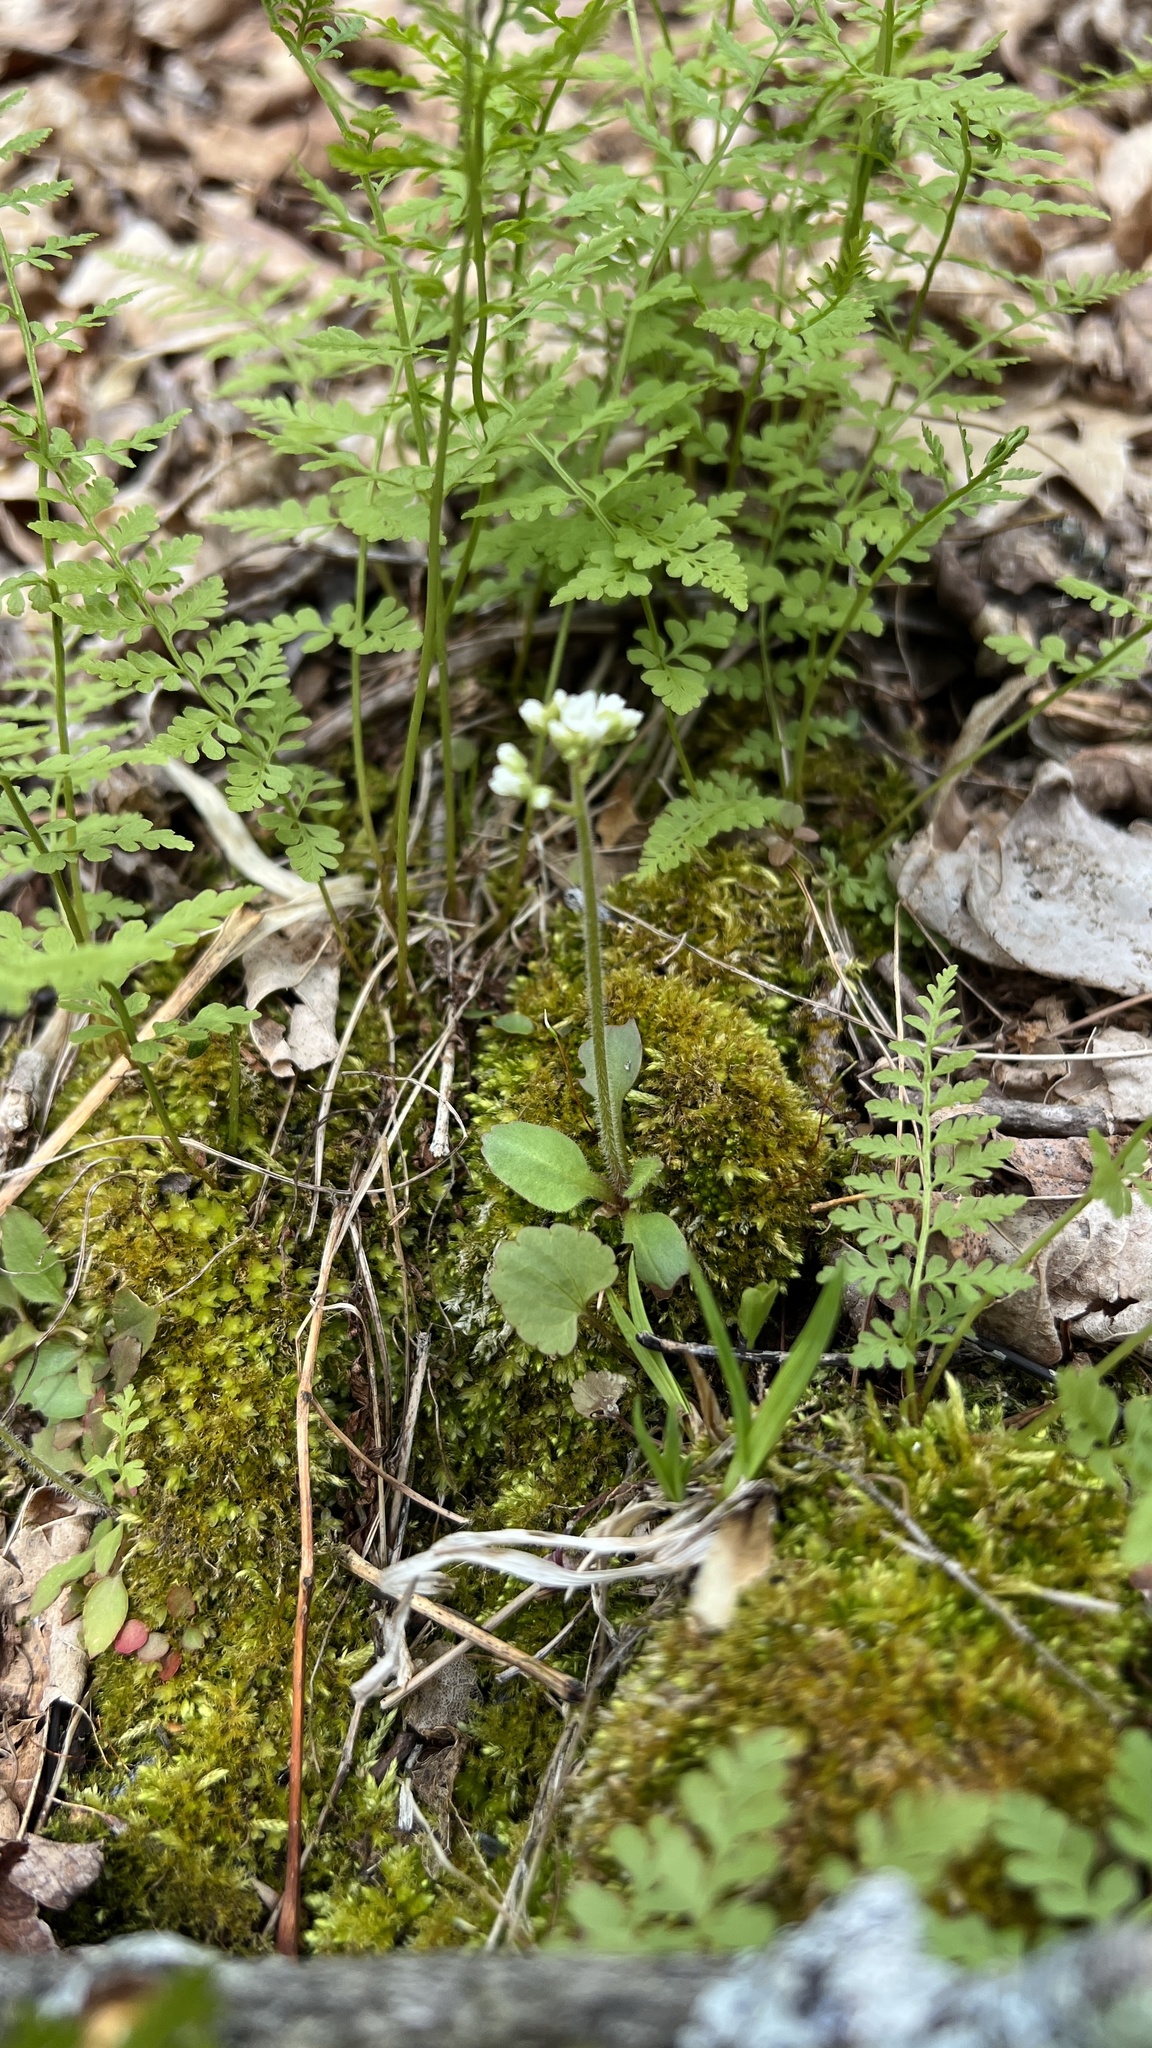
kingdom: Plantae
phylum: Tracheophyta
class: Magnoliopsida
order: Saxifragales
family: Saxifragaceae
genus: Micranthes
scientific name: Micranthes virginiensis
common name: Early saxifrage
